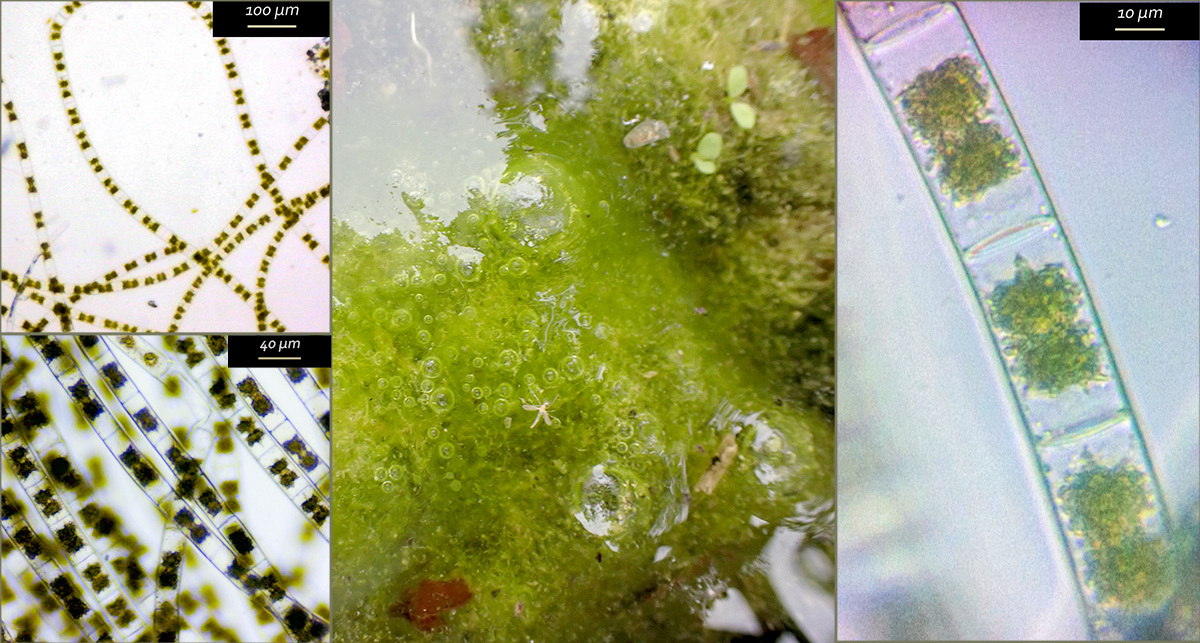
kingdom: Plantae
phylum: Charophyta
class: Zygnematophyceae
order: Zygnematales
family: Zygnemataceae
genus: Zygnema
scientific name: Zygnema
